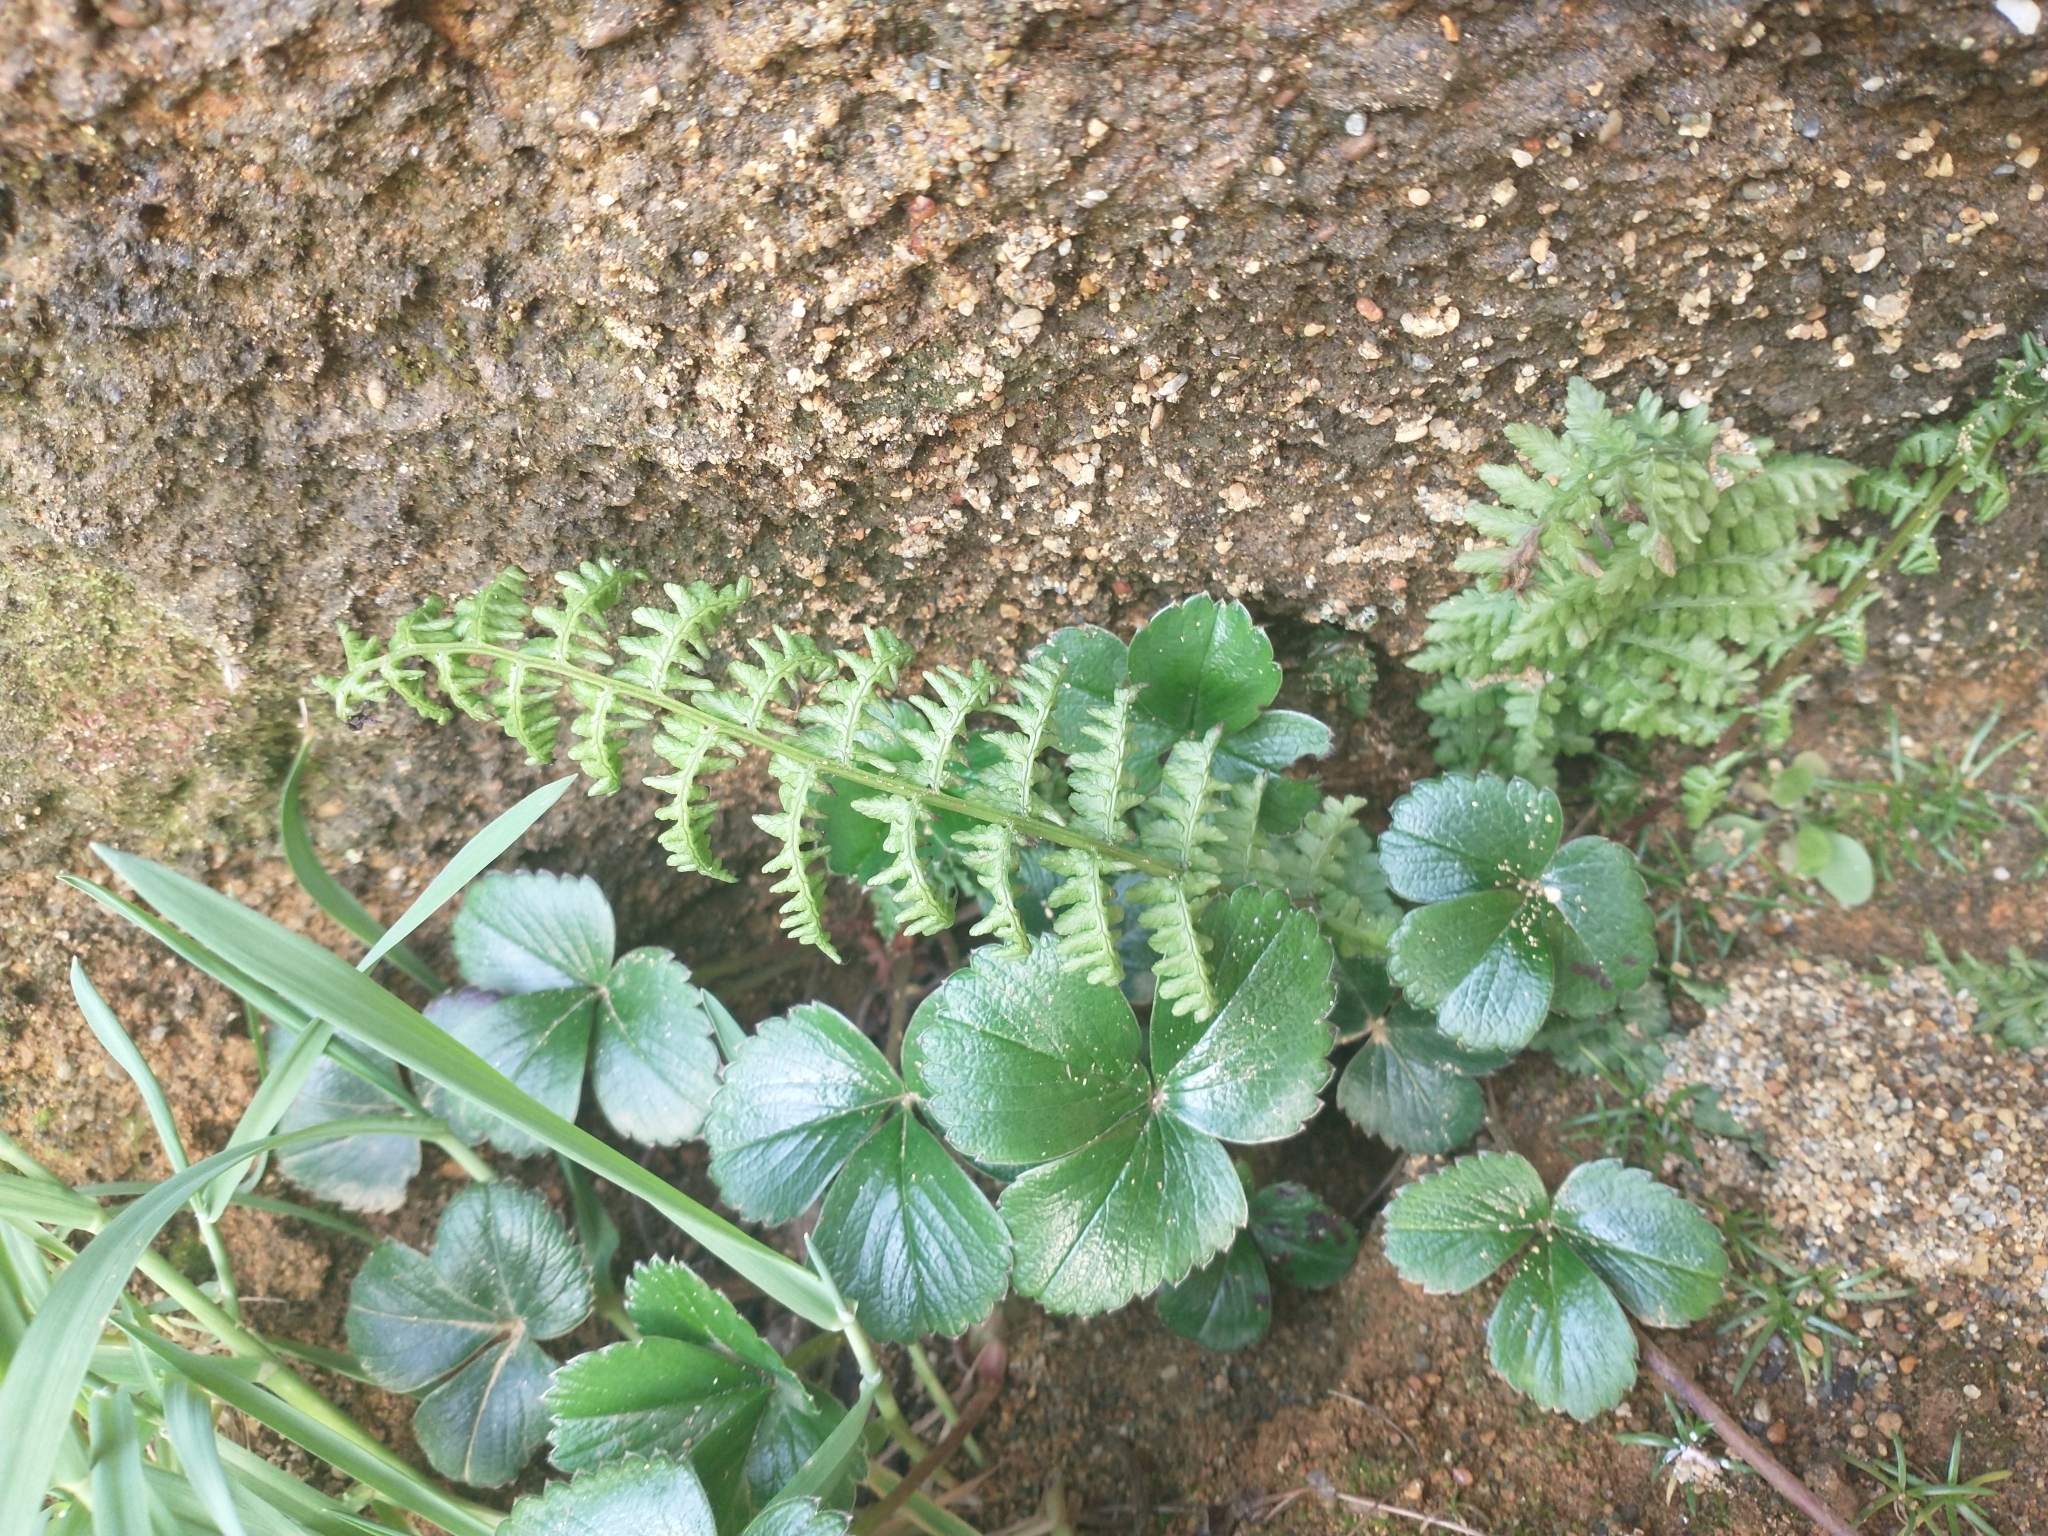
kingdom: Plantae
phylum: Tracheophyta
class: Magnoliopsida
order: Rosales
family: Rosaceae
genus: Fragaria
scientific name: Fragaria chiloensis
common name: Beach strawberry
